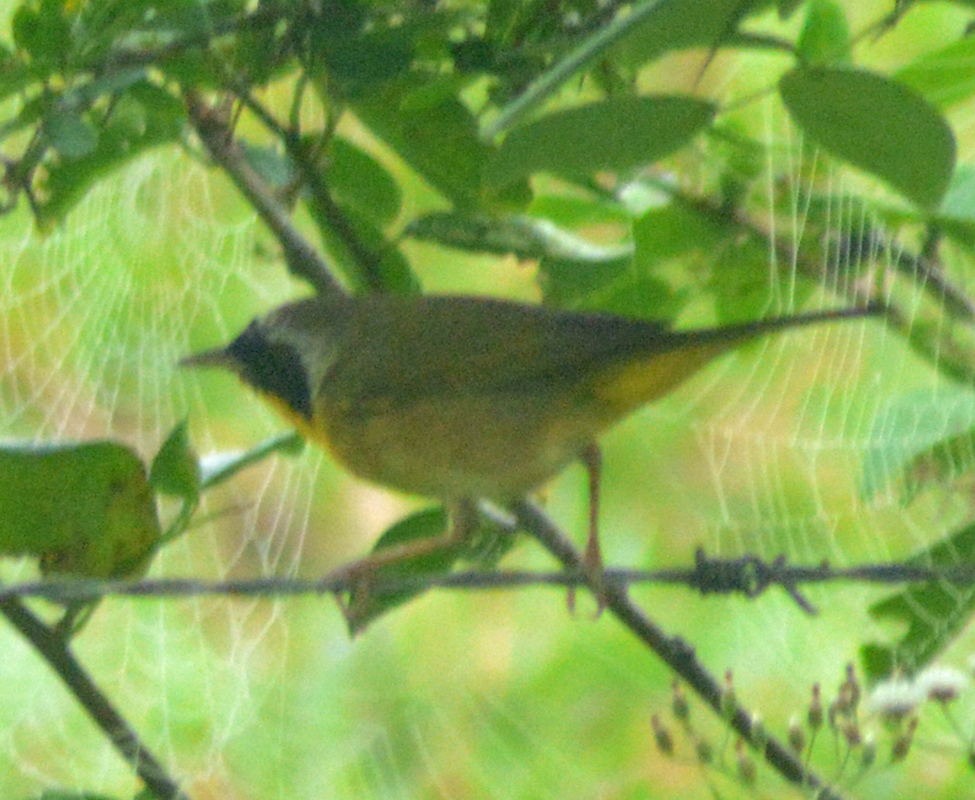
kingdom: Animalia
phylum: Chordata
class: Aves
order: Passeriformes
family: Parulidae
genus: Geothlypis
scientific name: Geothlypis trichas
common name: Common yellowthroat
